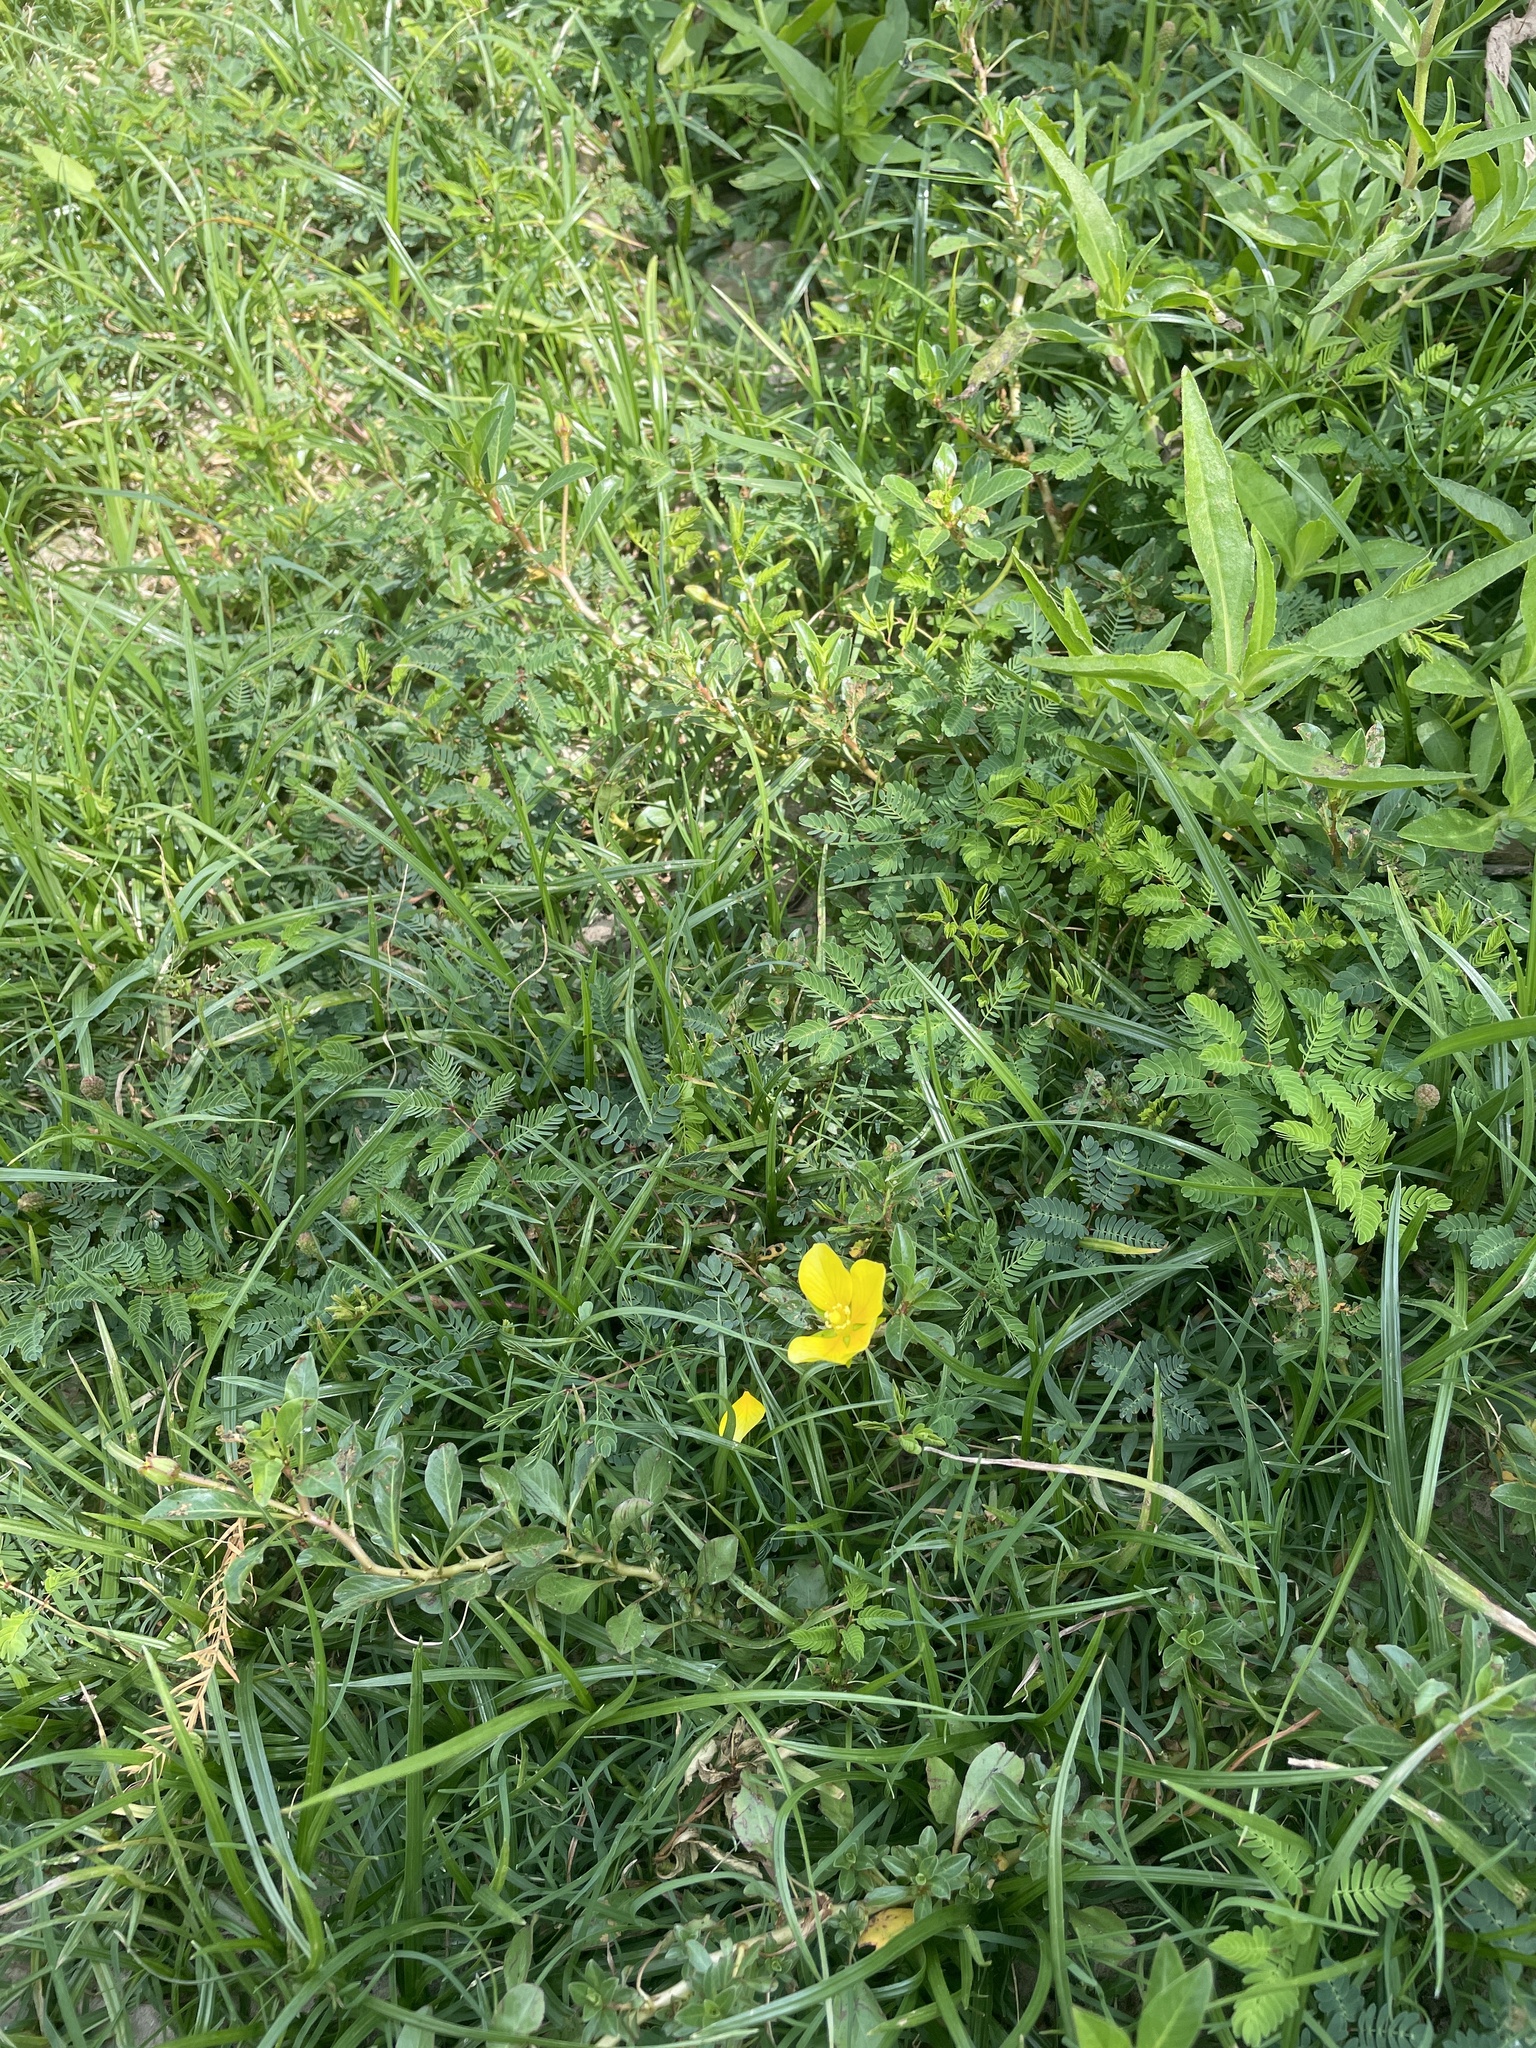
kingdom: Plantae
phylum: Tracheophyta
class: Magnoliopsida
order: Myrtales
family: Onagraceae
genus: Ludwigia
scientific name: Ludwigia peploides
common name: Floating primrose-willow
